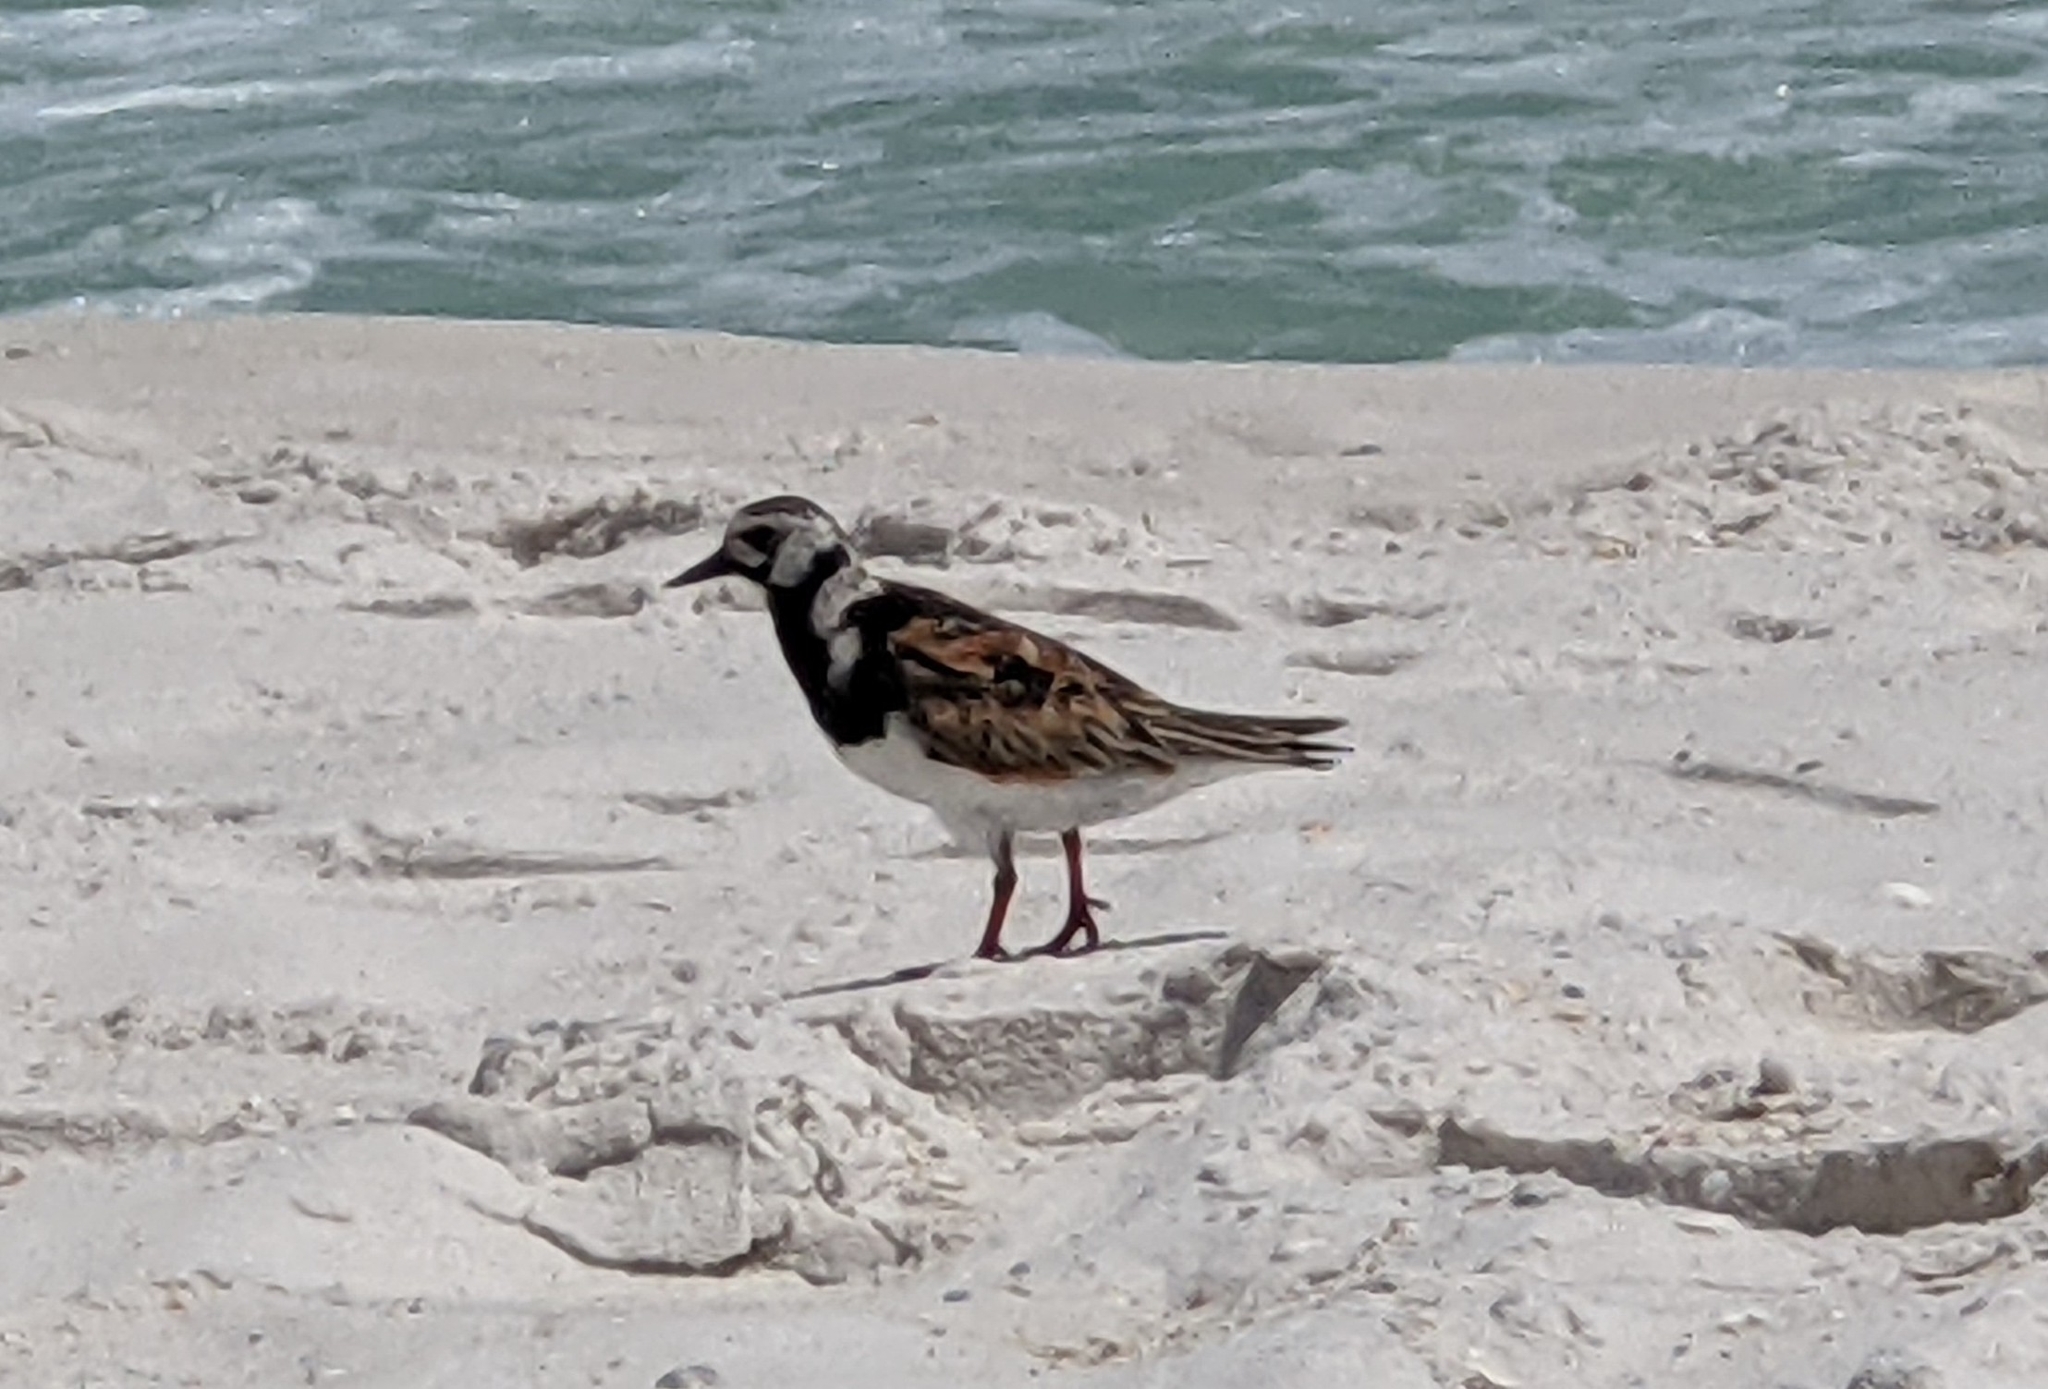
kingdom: Animalia
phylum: Chordata
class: Aves
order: Charadriiformes
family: Scolopacidae
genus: Arenaria
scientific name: Arenaria interpres
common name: Ruddy turnstone
